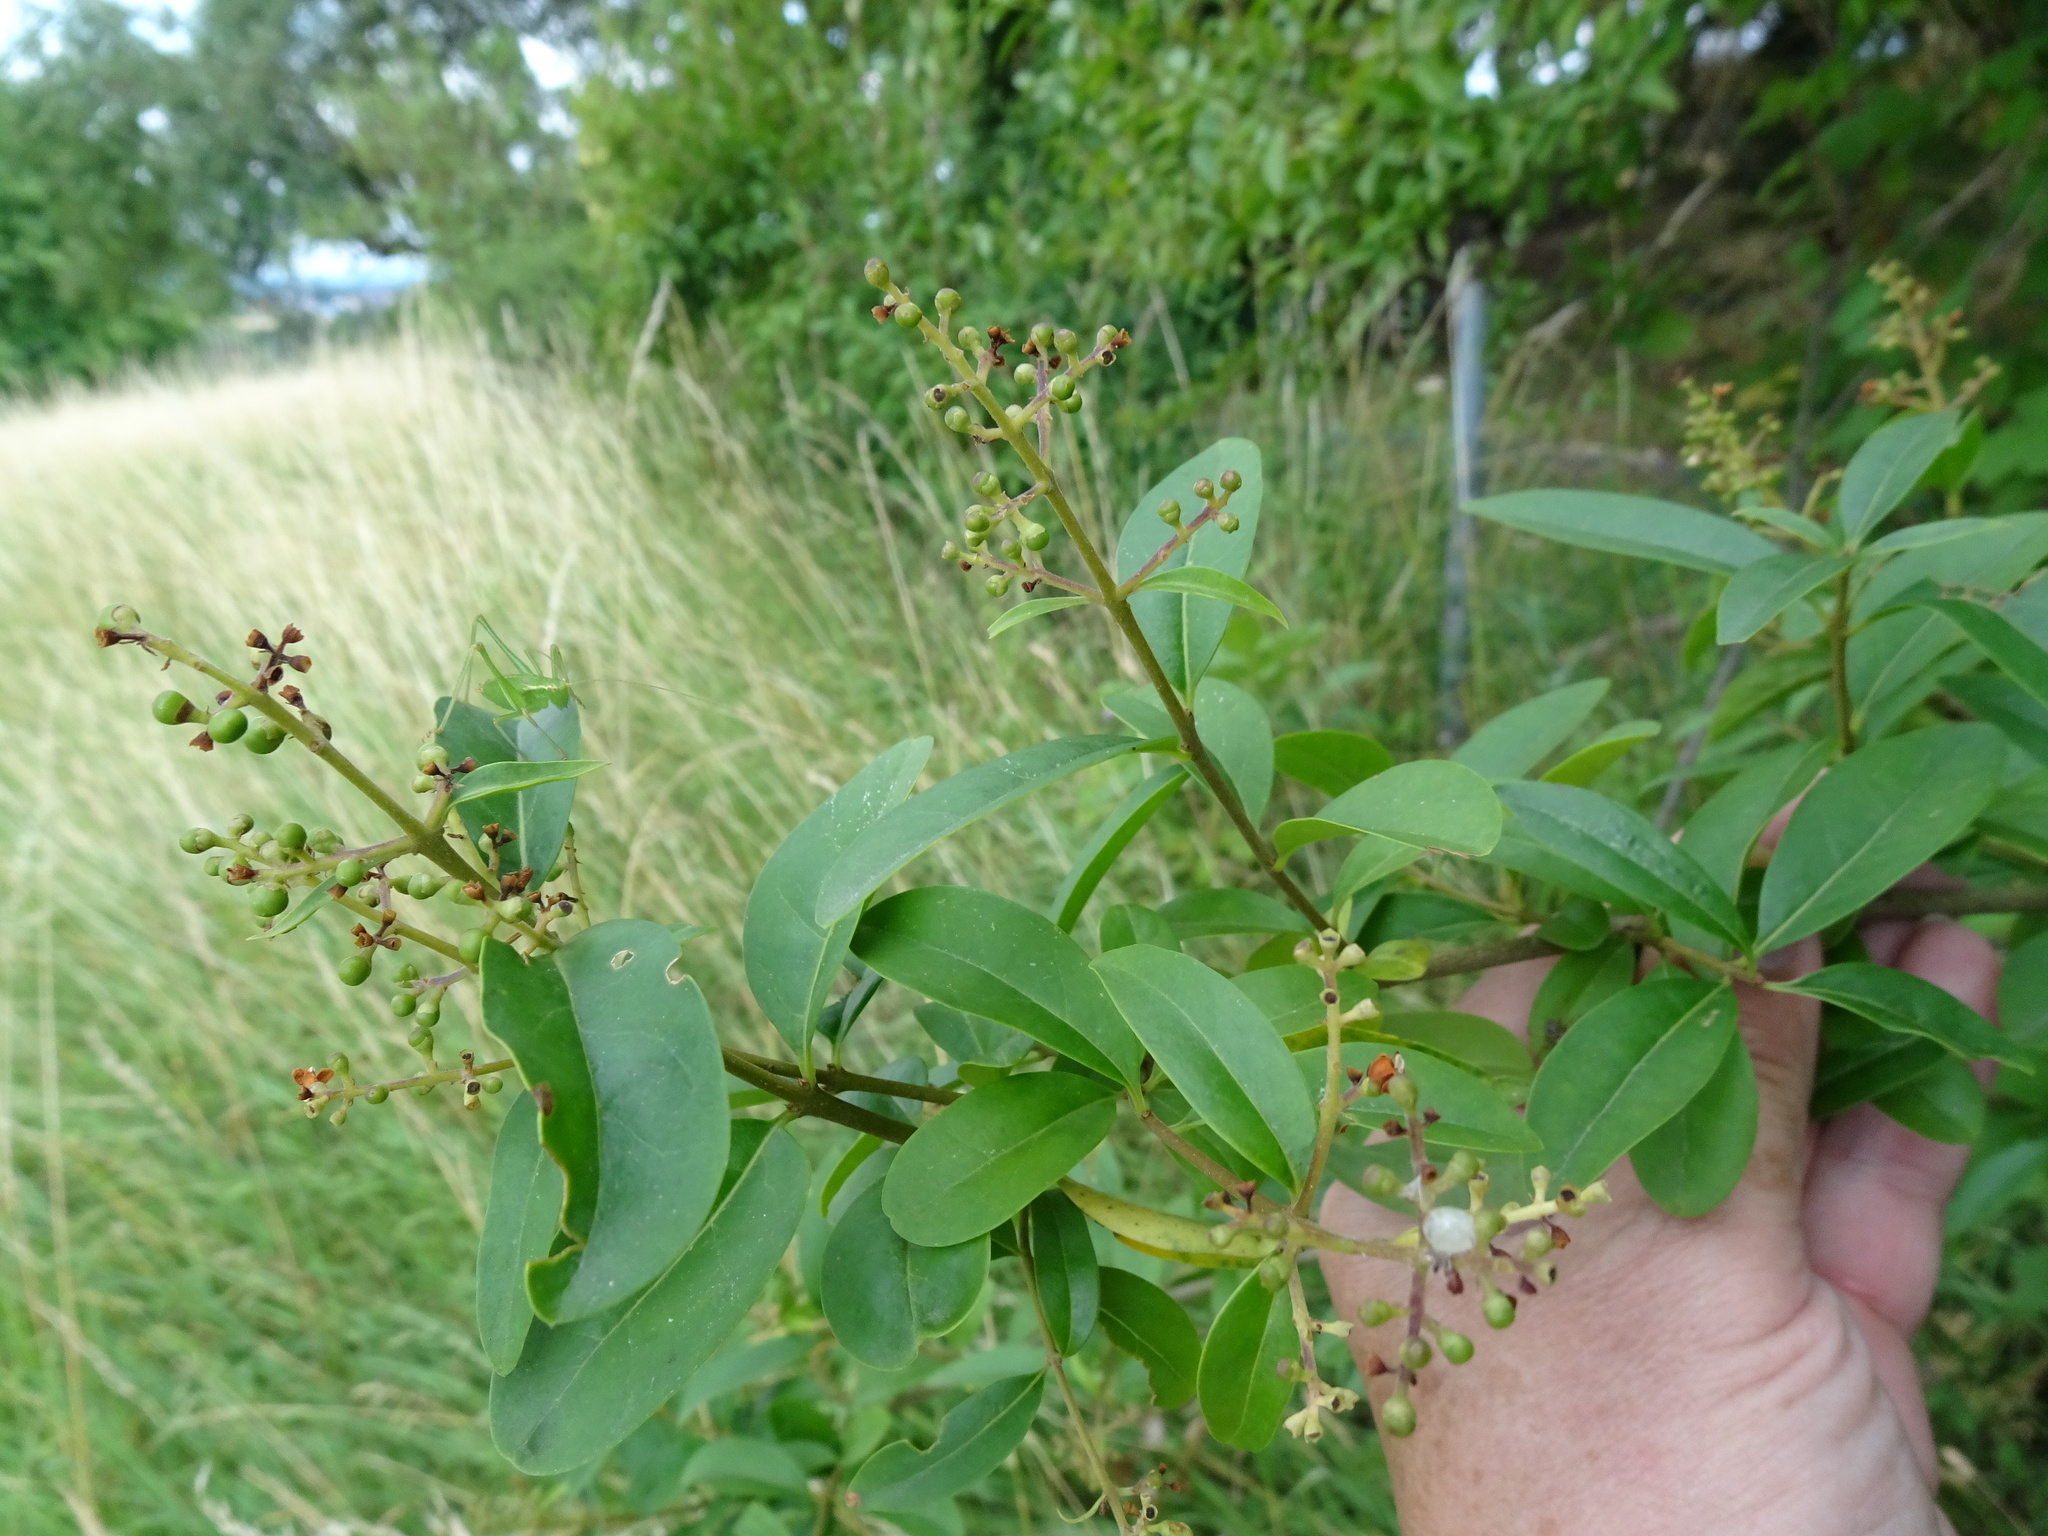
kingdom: Plantae
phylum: Tracheophyta
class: Magnoliopsida
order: Lamiales
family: Oleaceae
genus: Ligustrum
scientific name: Ligustrum vulgare
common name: Wild privet
